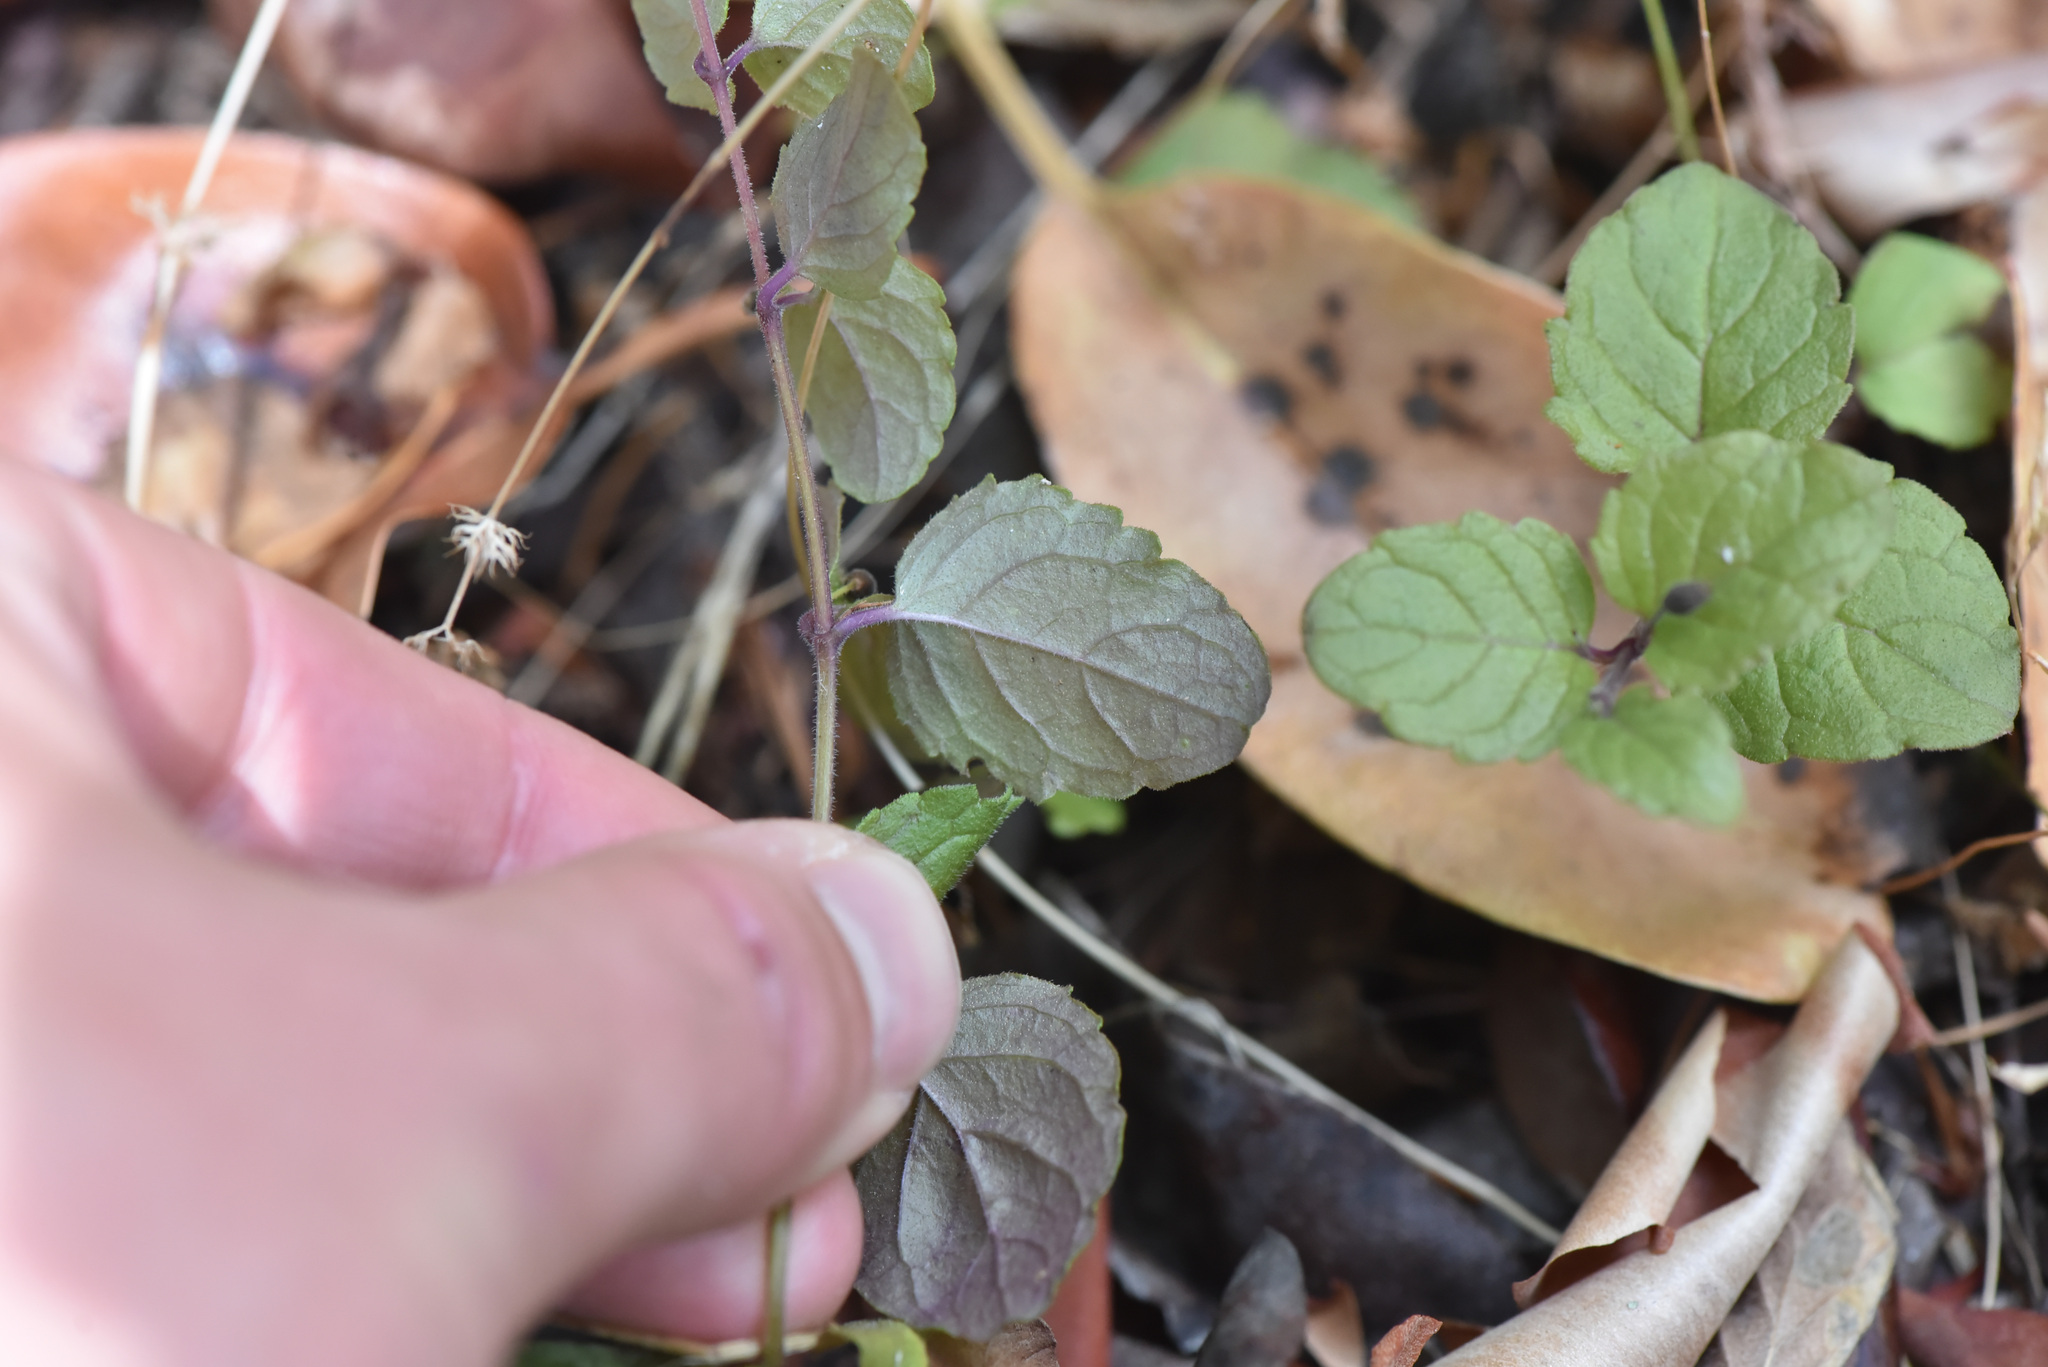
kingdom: Plantae
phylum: Tracheophyta
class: Magnoliopsida
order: Lamiales
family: Lamiaceae
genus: Micromeria
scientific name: Micromeria douglasii
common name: Yerba buena
